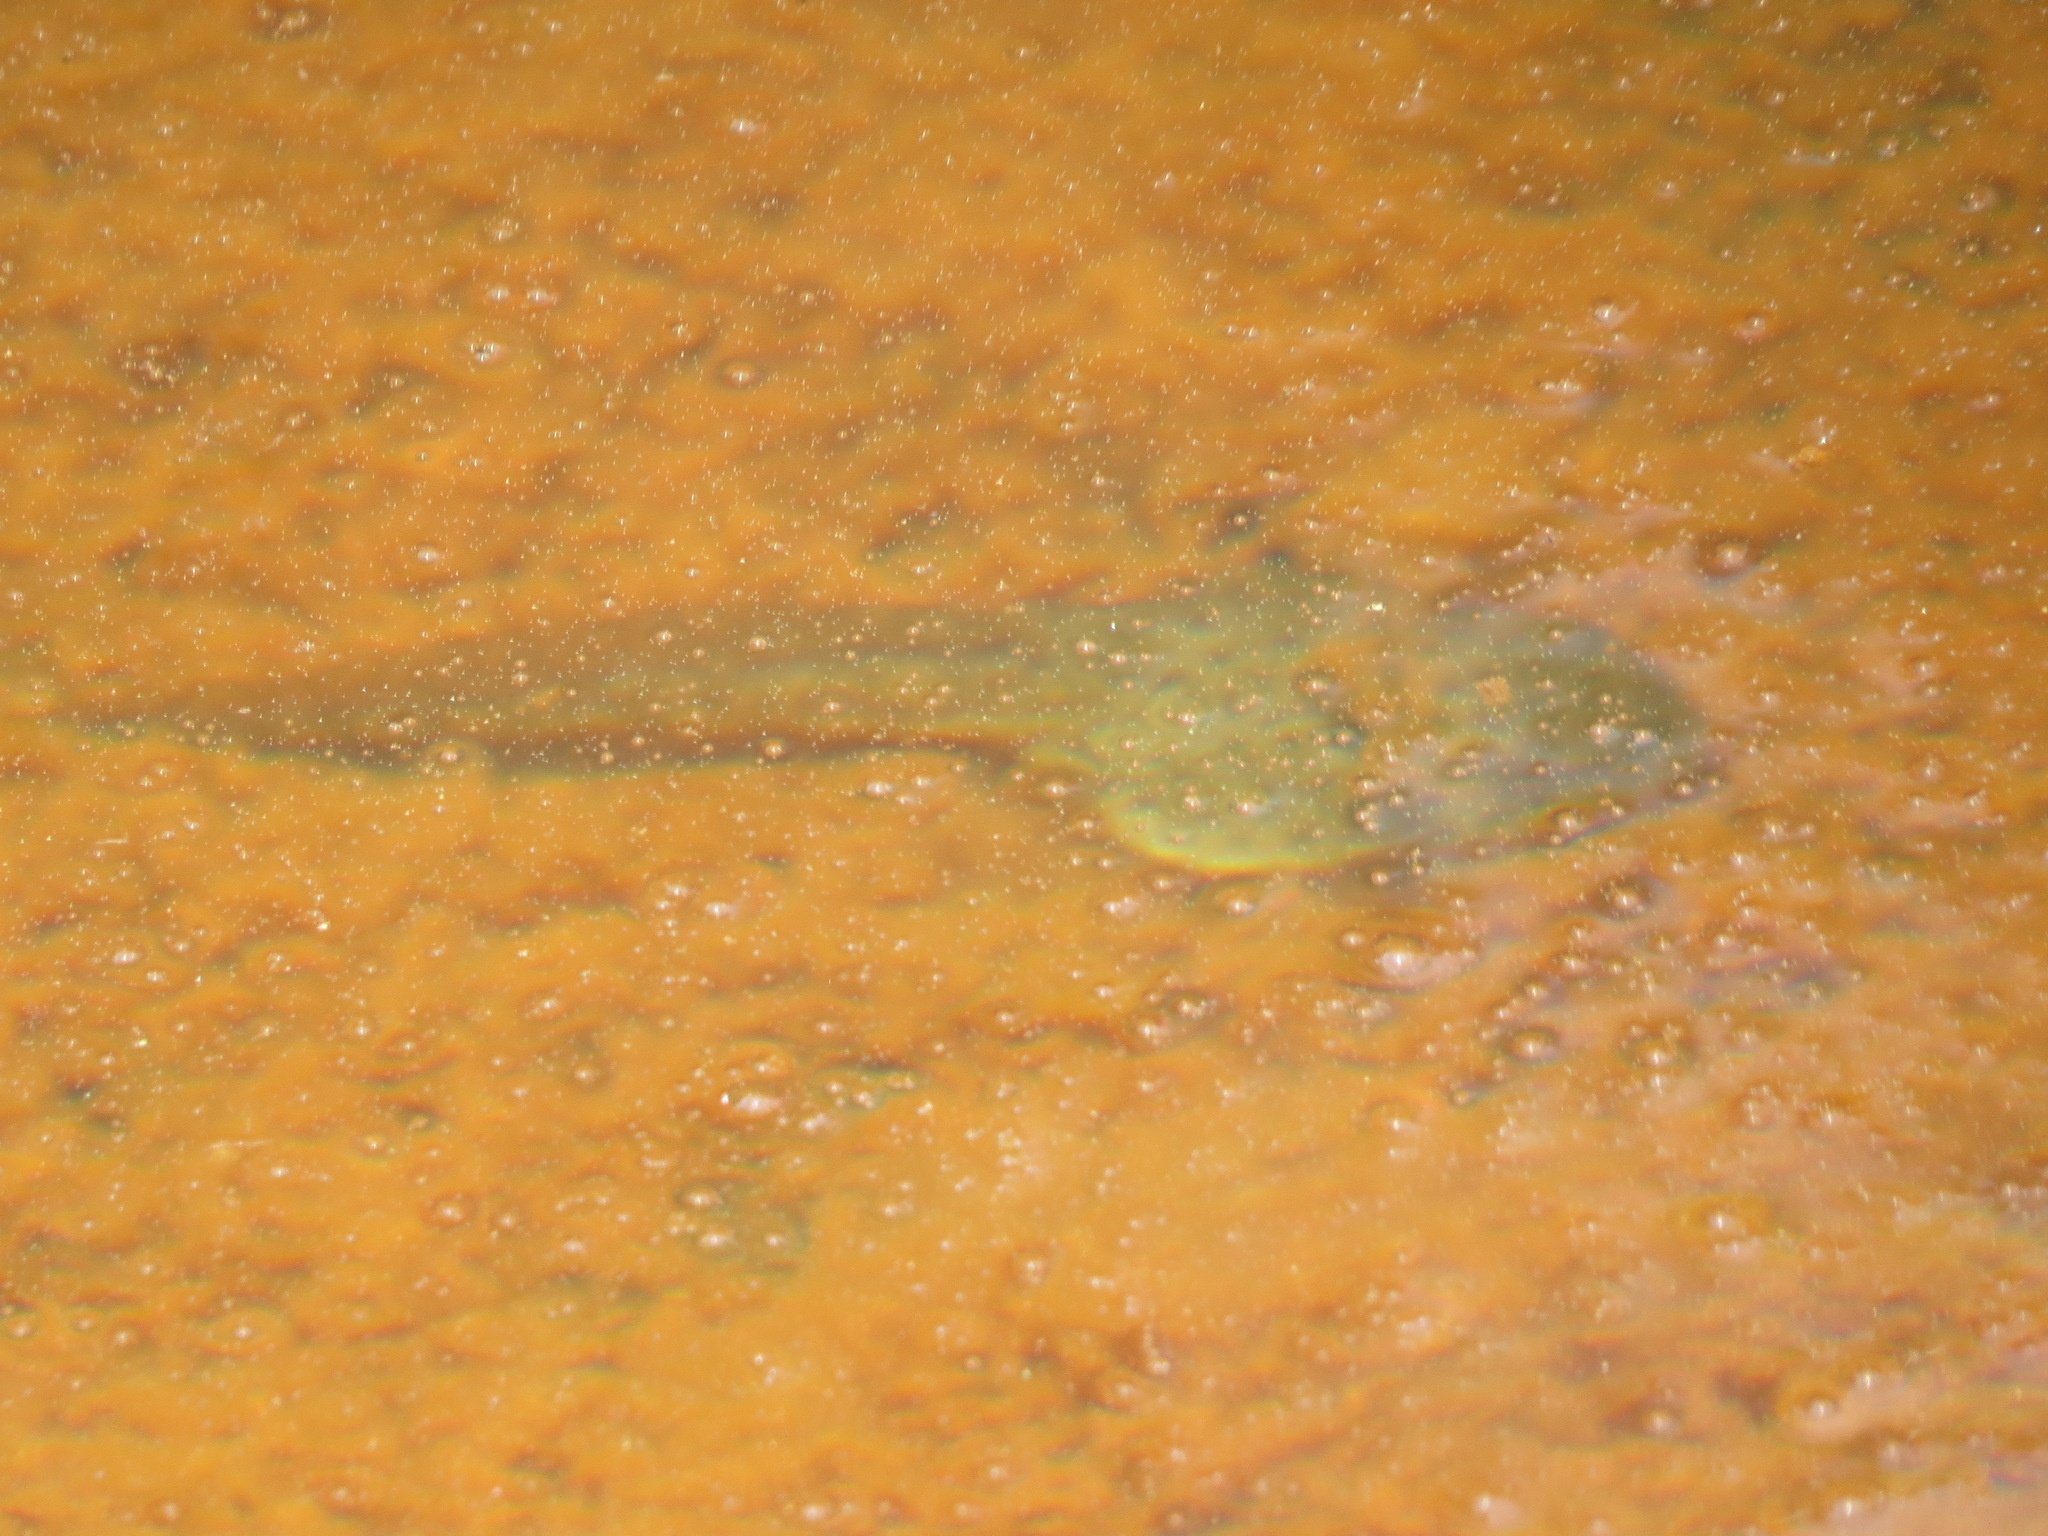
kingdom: Animalia
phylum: Chordata
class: Amphibia
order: Anura
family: Ranidae
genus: Lithobates
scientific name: Lithobates catesbeianus
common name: American bullfrog
